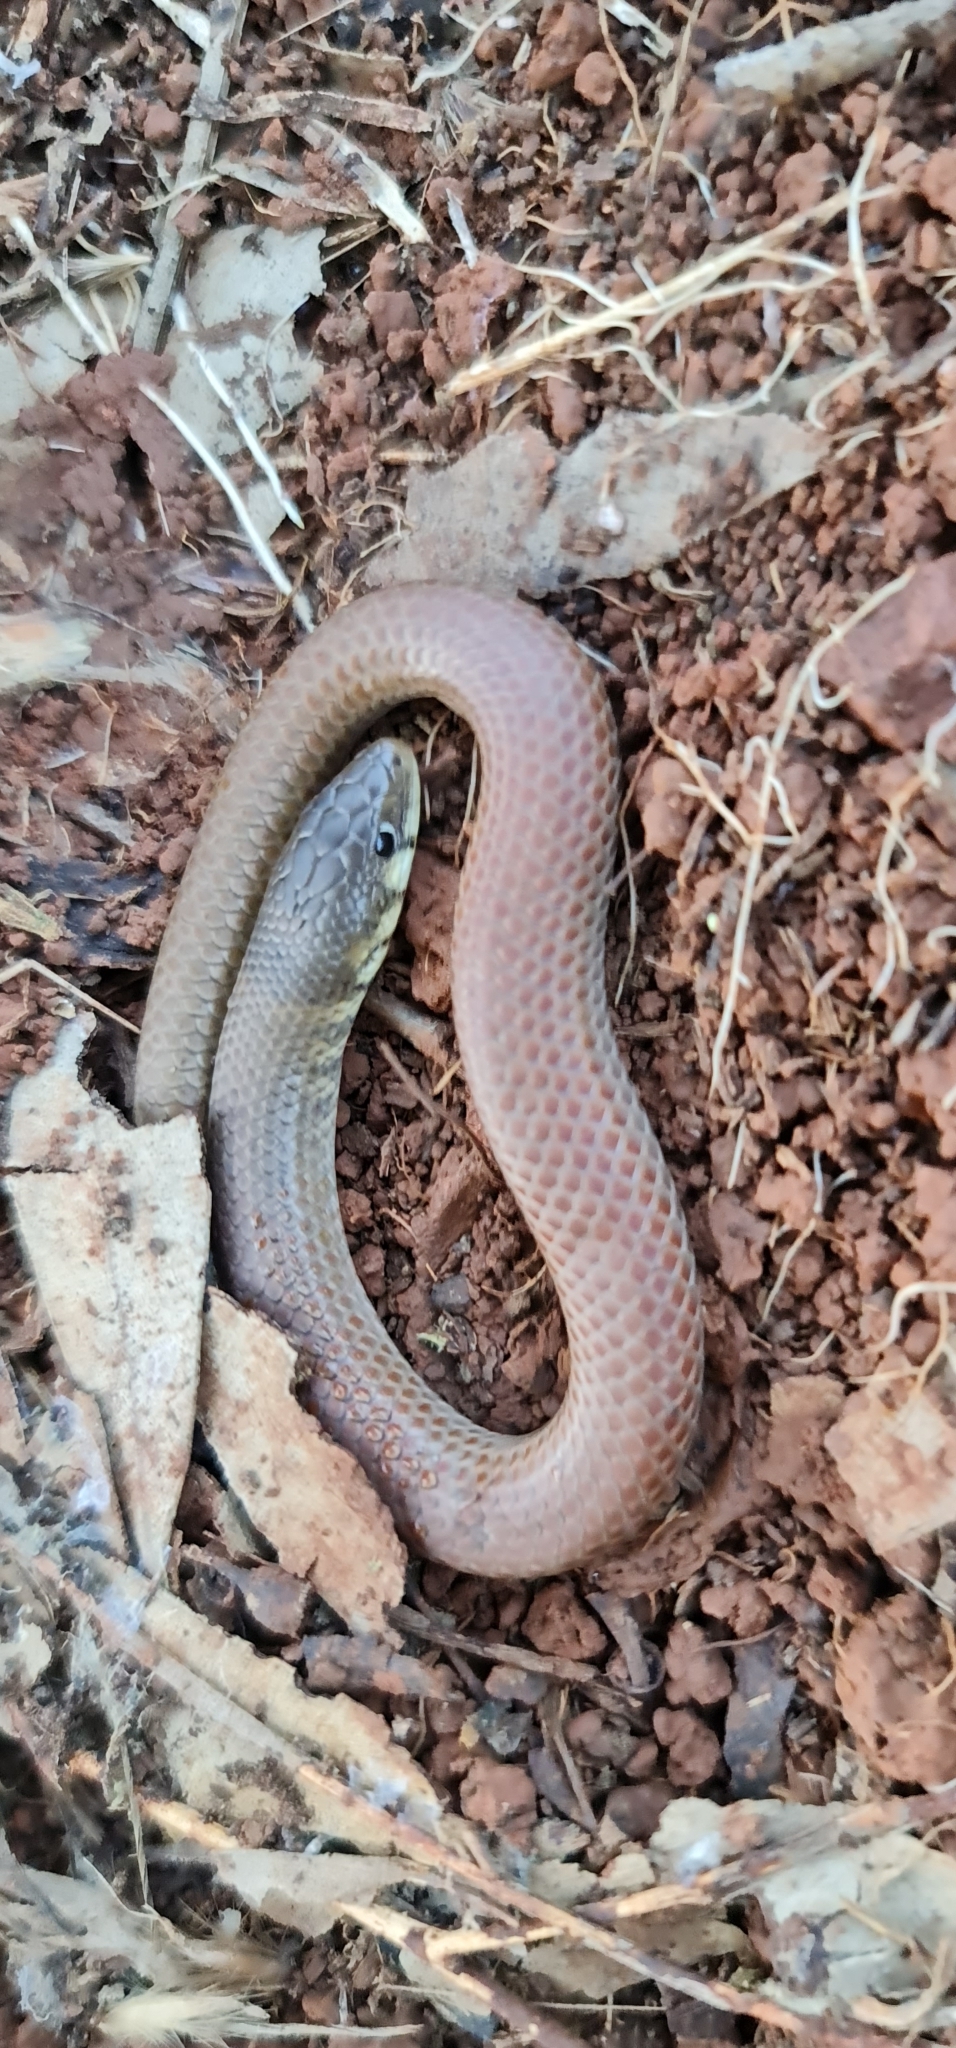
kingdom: Animalia
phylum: Chordata
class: Squamata
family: Pygopodidae
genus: Delma
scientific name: Delma molleri
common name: Gulfs delma
